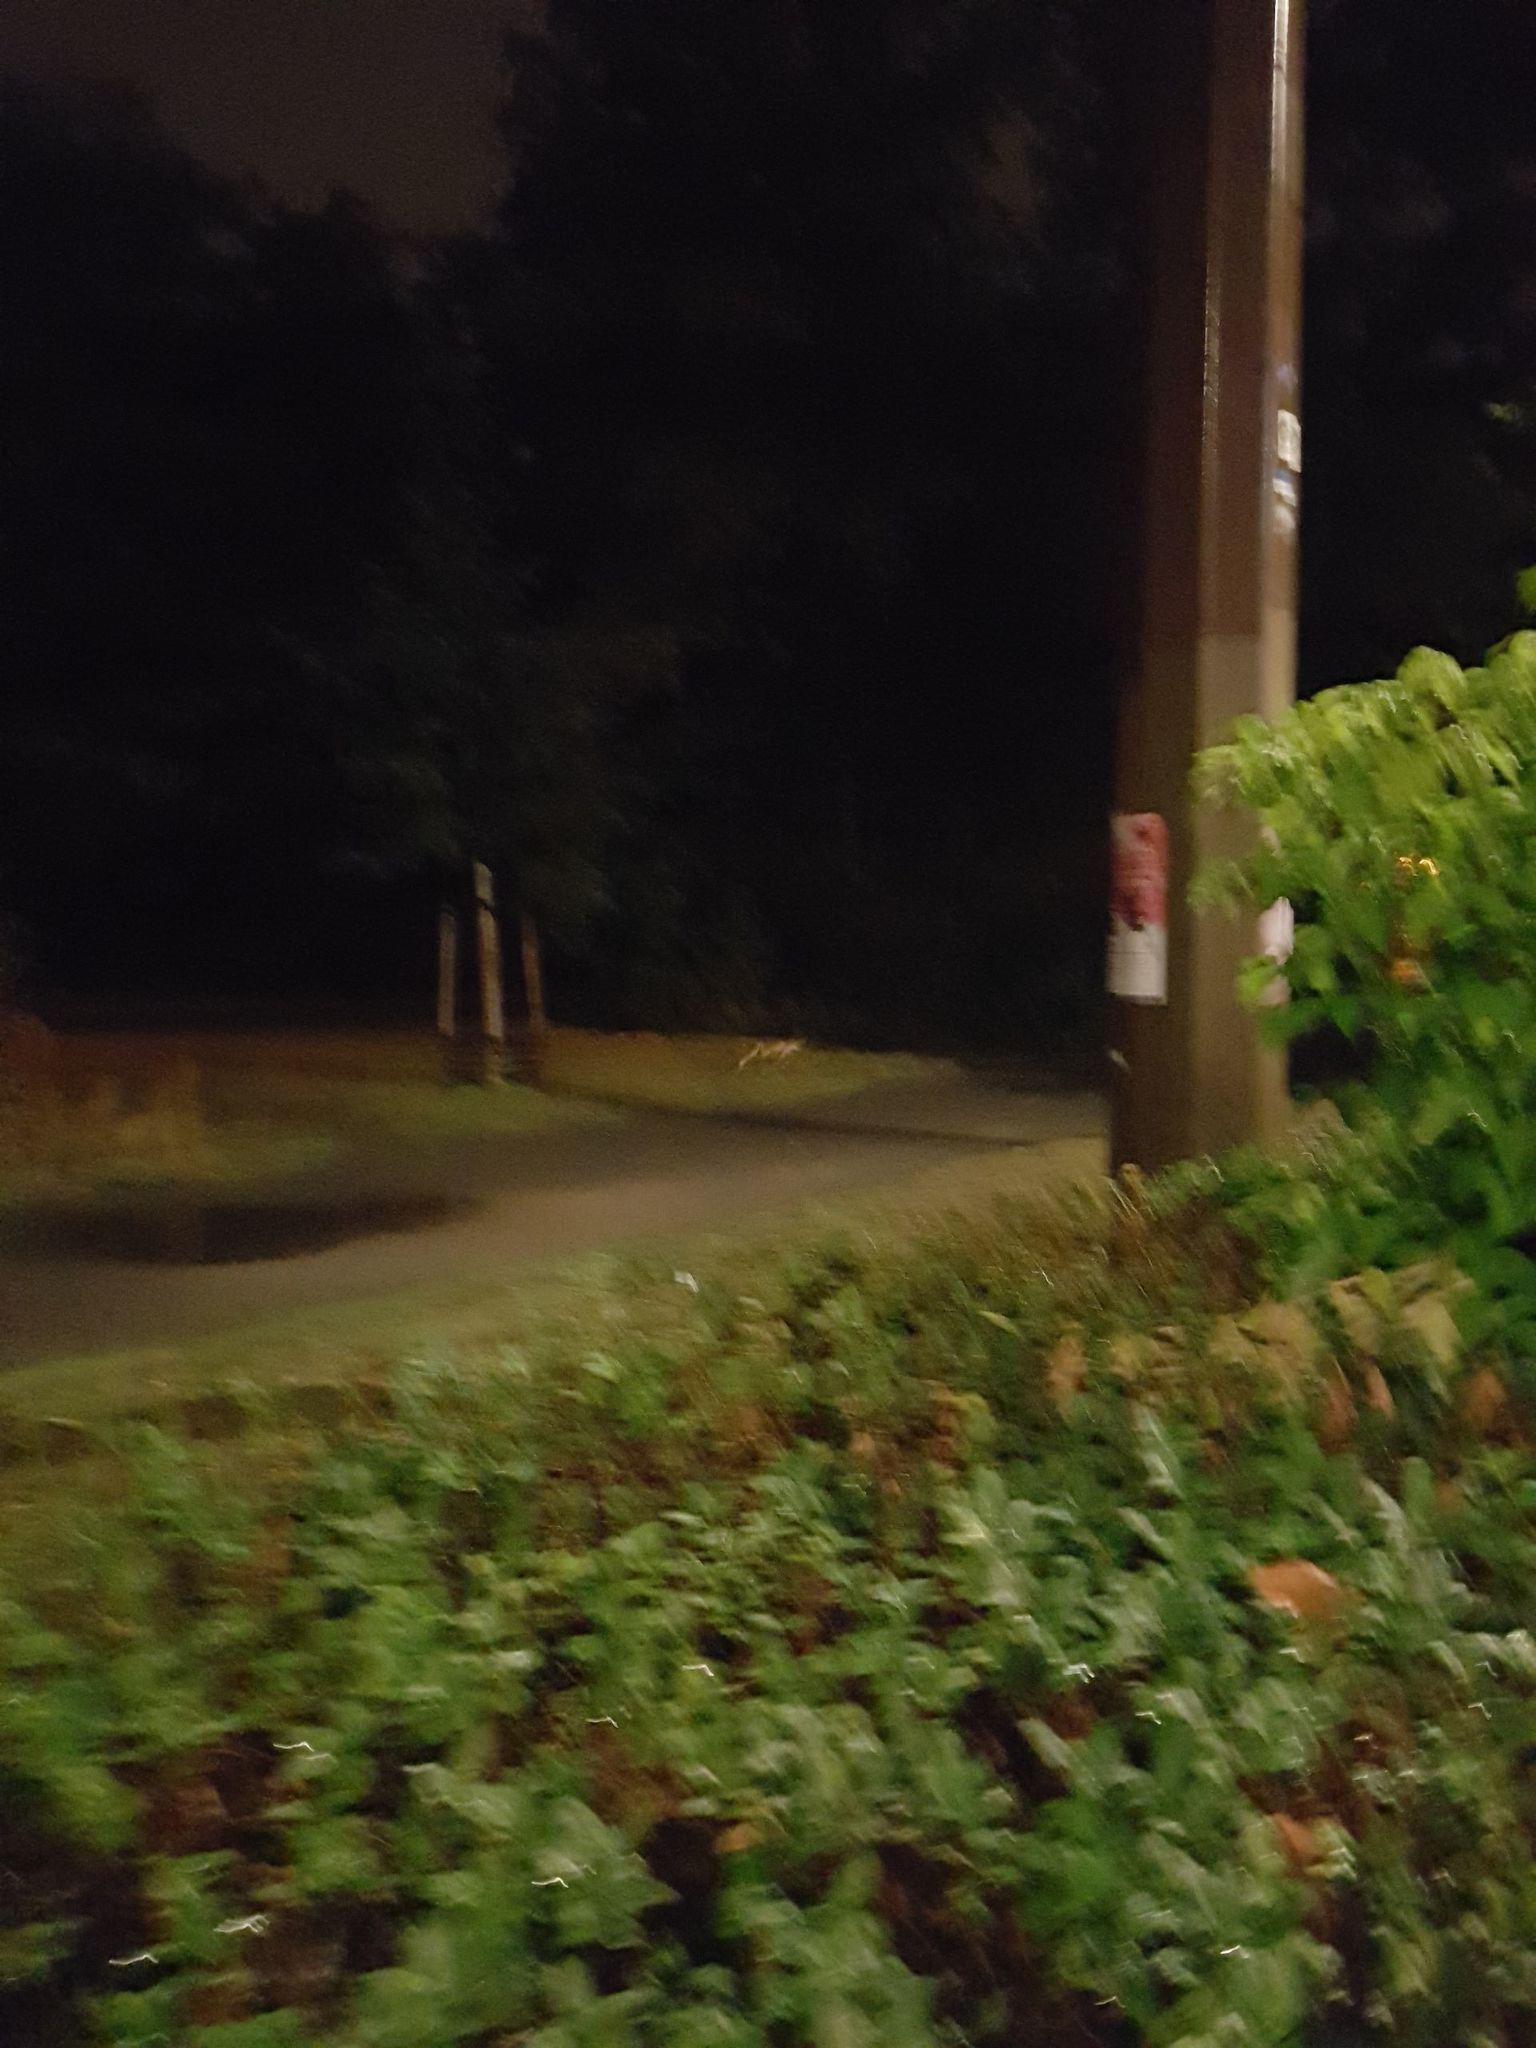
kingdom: Animalia
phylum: Chordata
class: Mammalia
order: Carnivora
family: Canidae
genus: Vulpes
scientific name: Vulpes vulpes
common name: Red fox
